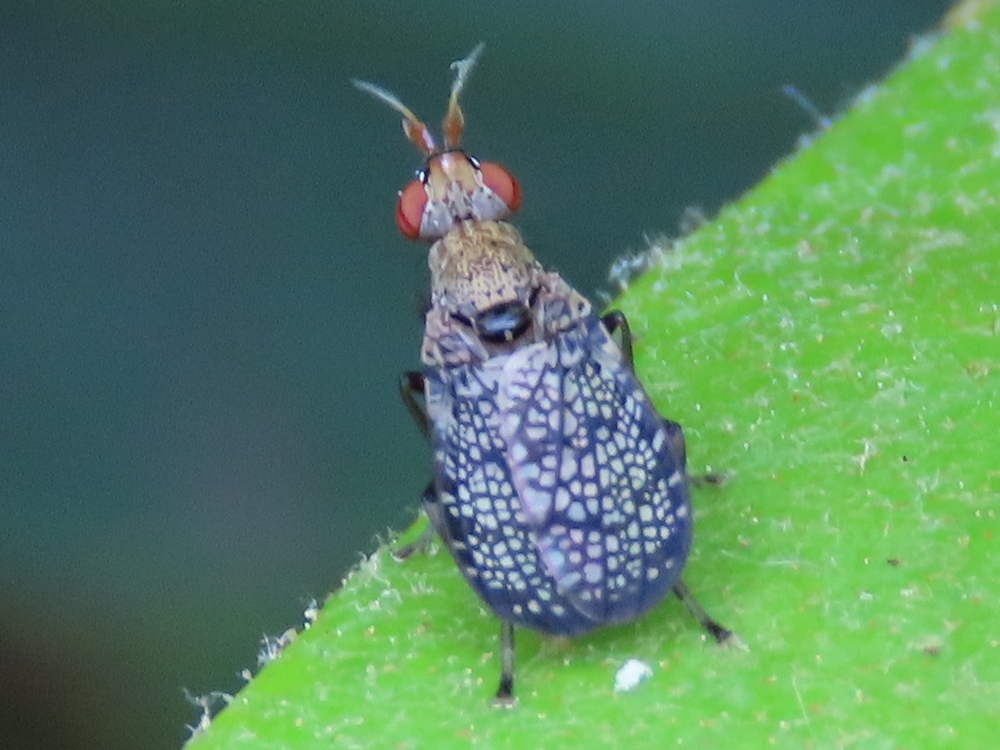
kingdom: Animalia
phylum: Arthropoda
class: Insecta
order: Diptera
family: Sciomyzidae
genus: Euthycera
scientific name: Euthycera flavescens
